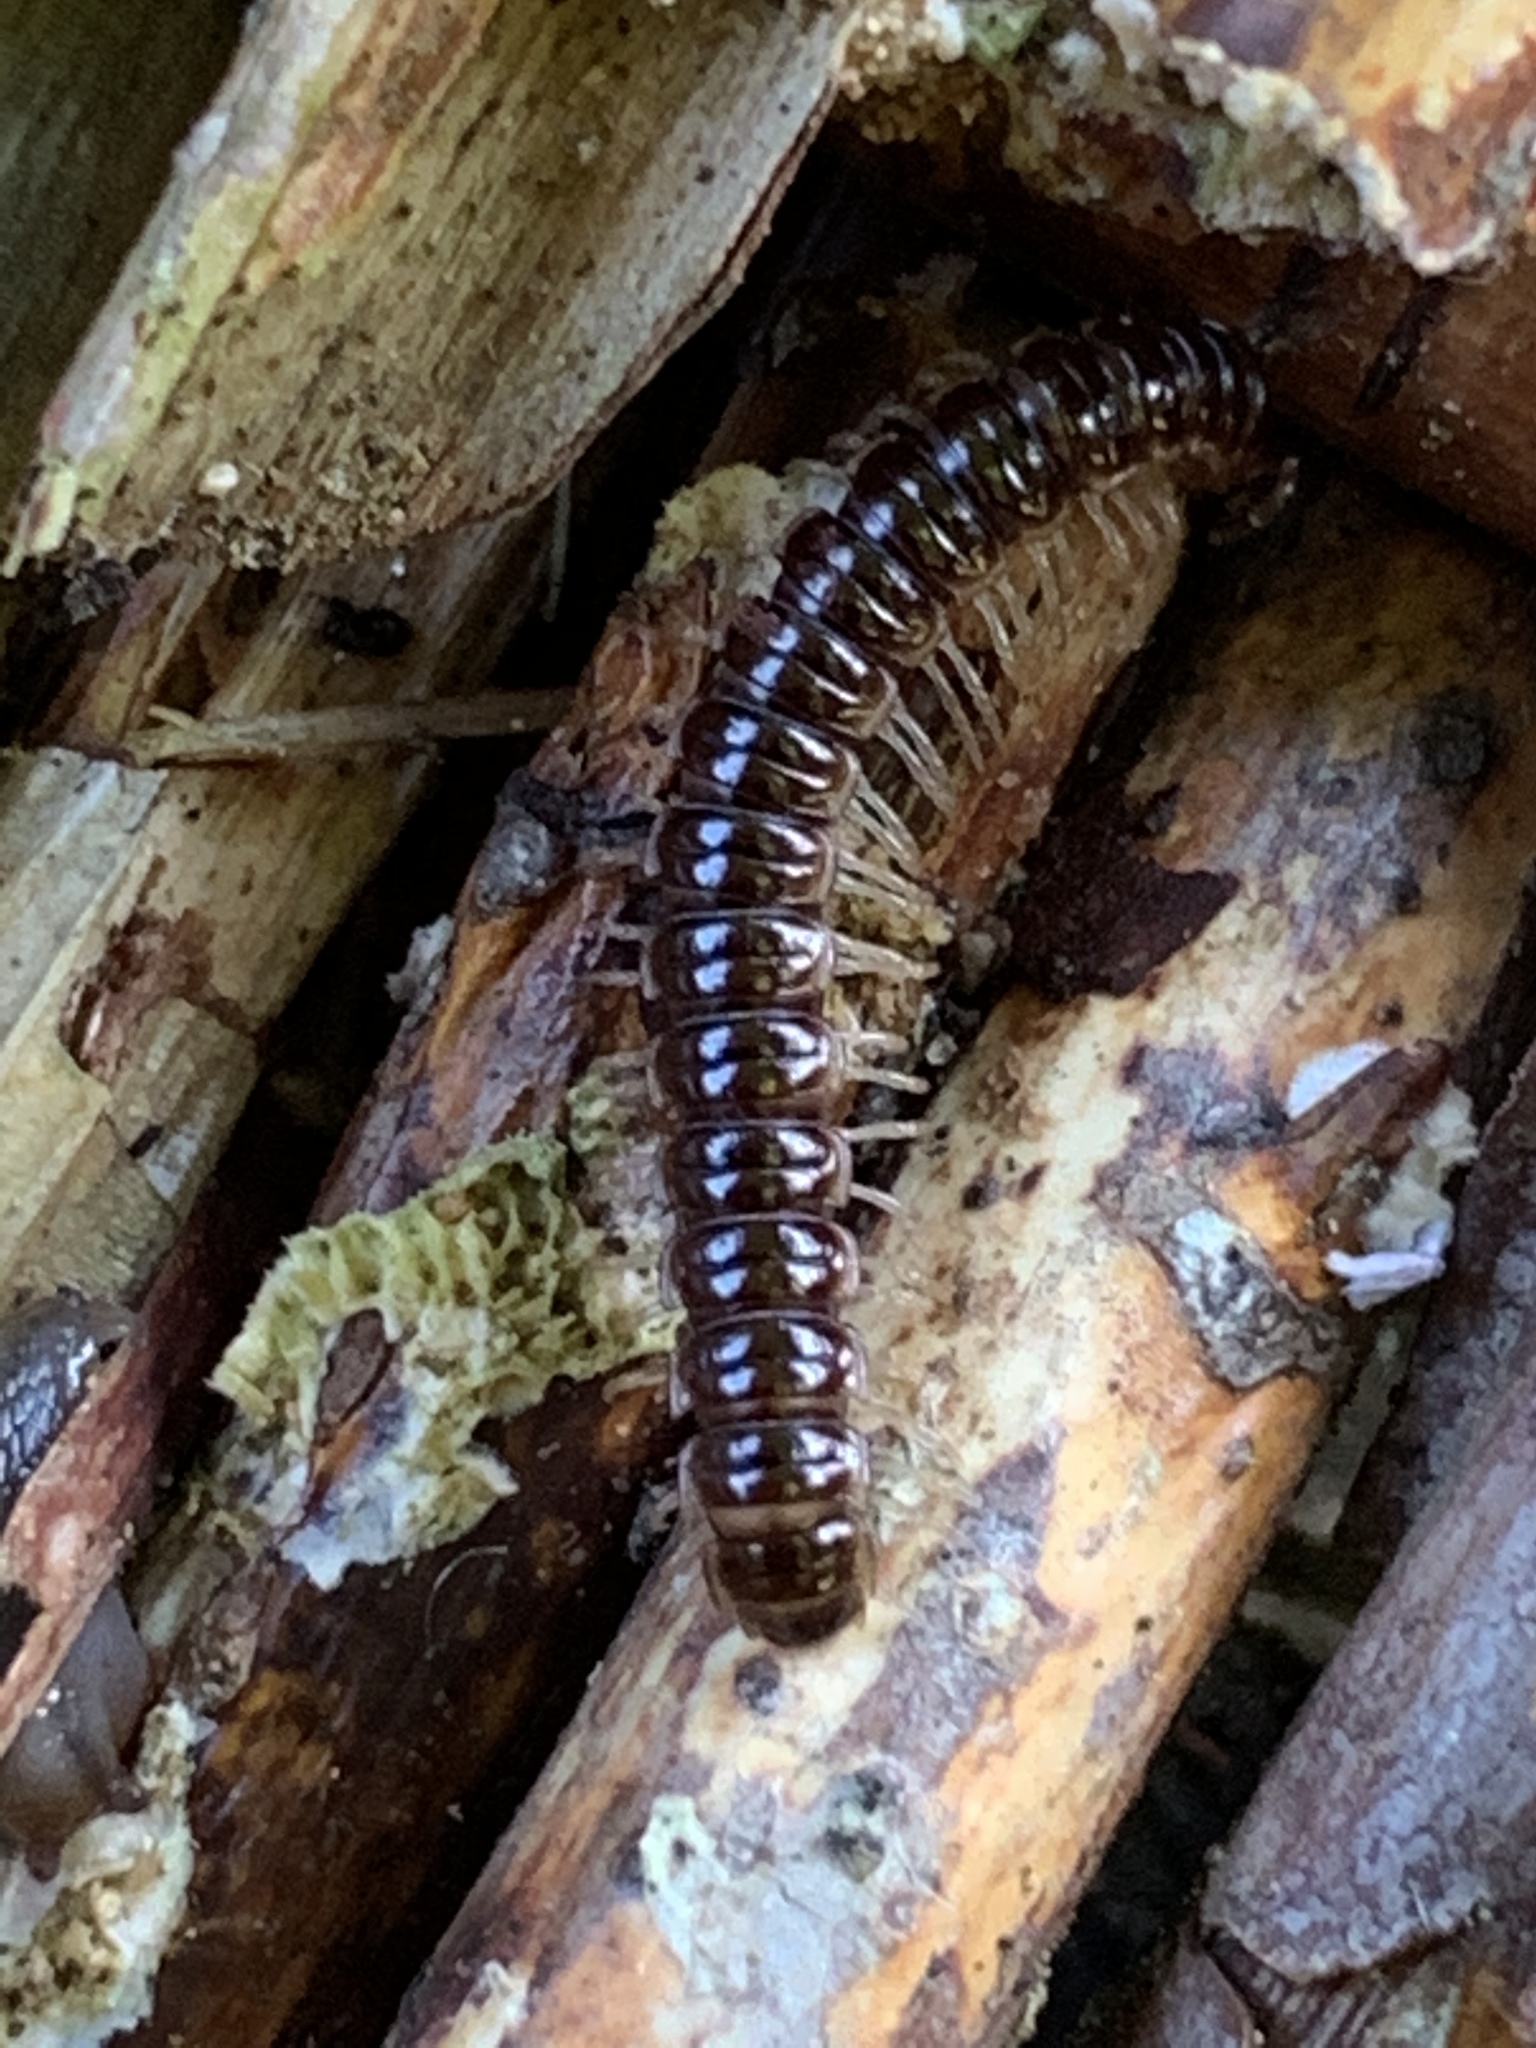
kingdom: Animalia
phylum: Arthropoda
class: Diplopoda
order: Polydesmida
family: Paradoxosomatidae
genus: Oxidus
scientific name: Oxidus gracilis
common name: Greenhouse millipede
